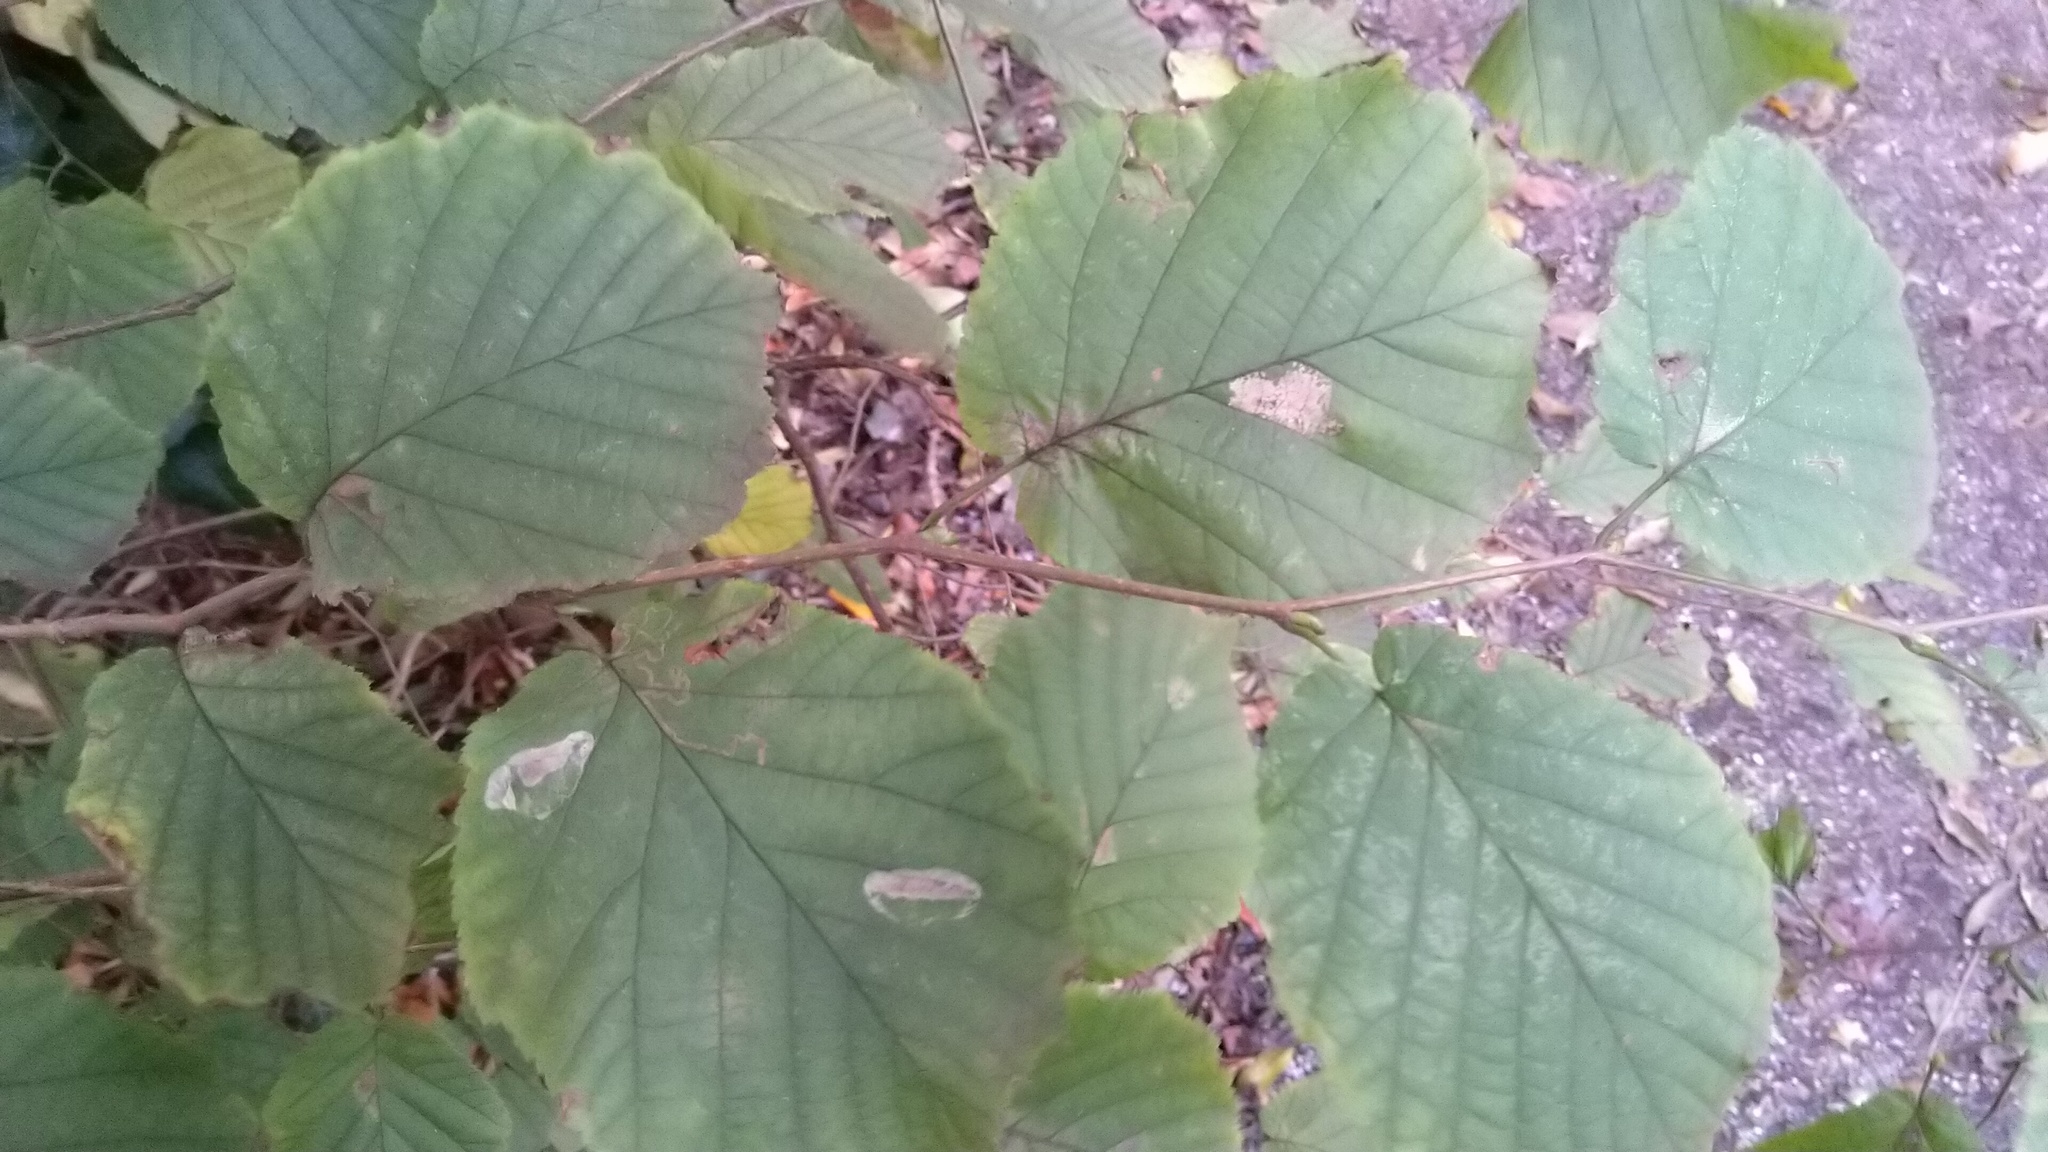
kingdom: Plantae
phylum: Tracheophyta
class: Magnoliopsida
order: Fagales
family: Betulaceae
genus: Corylus
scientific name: Corylus avellana
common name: European hazel
